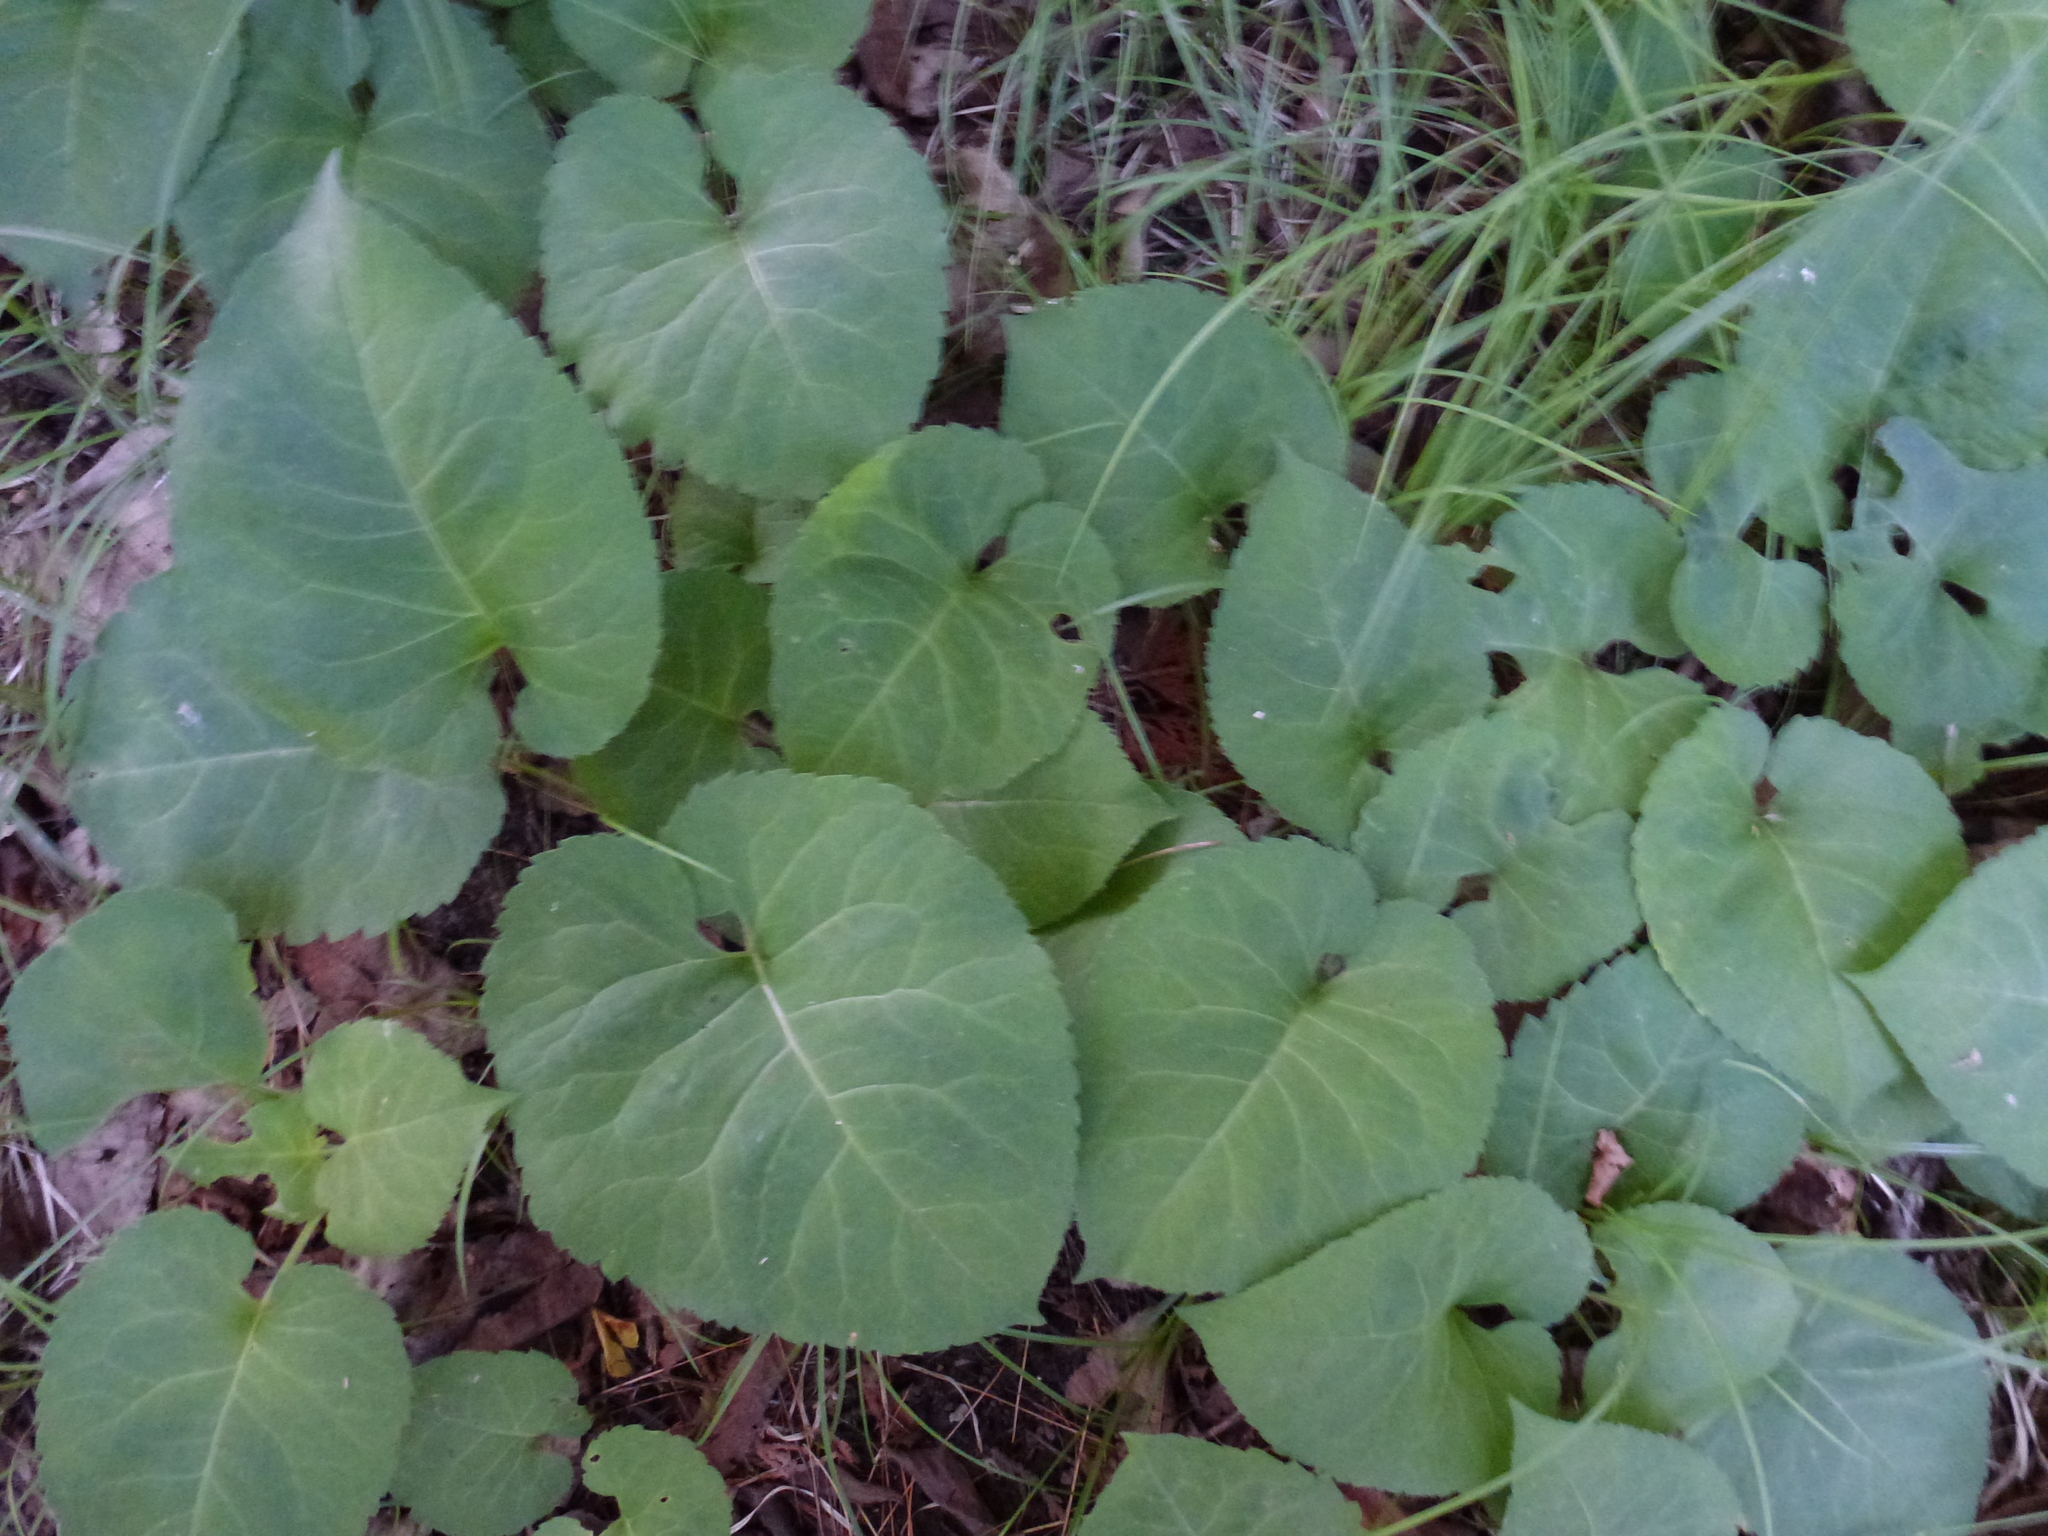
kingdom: Plantae
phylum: Tracheophyta
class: Magnoliopsida
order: Asterales
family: Asteraceae
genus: Eurybia
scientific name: Eurybia macrophylla
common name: Big-leaved aster
